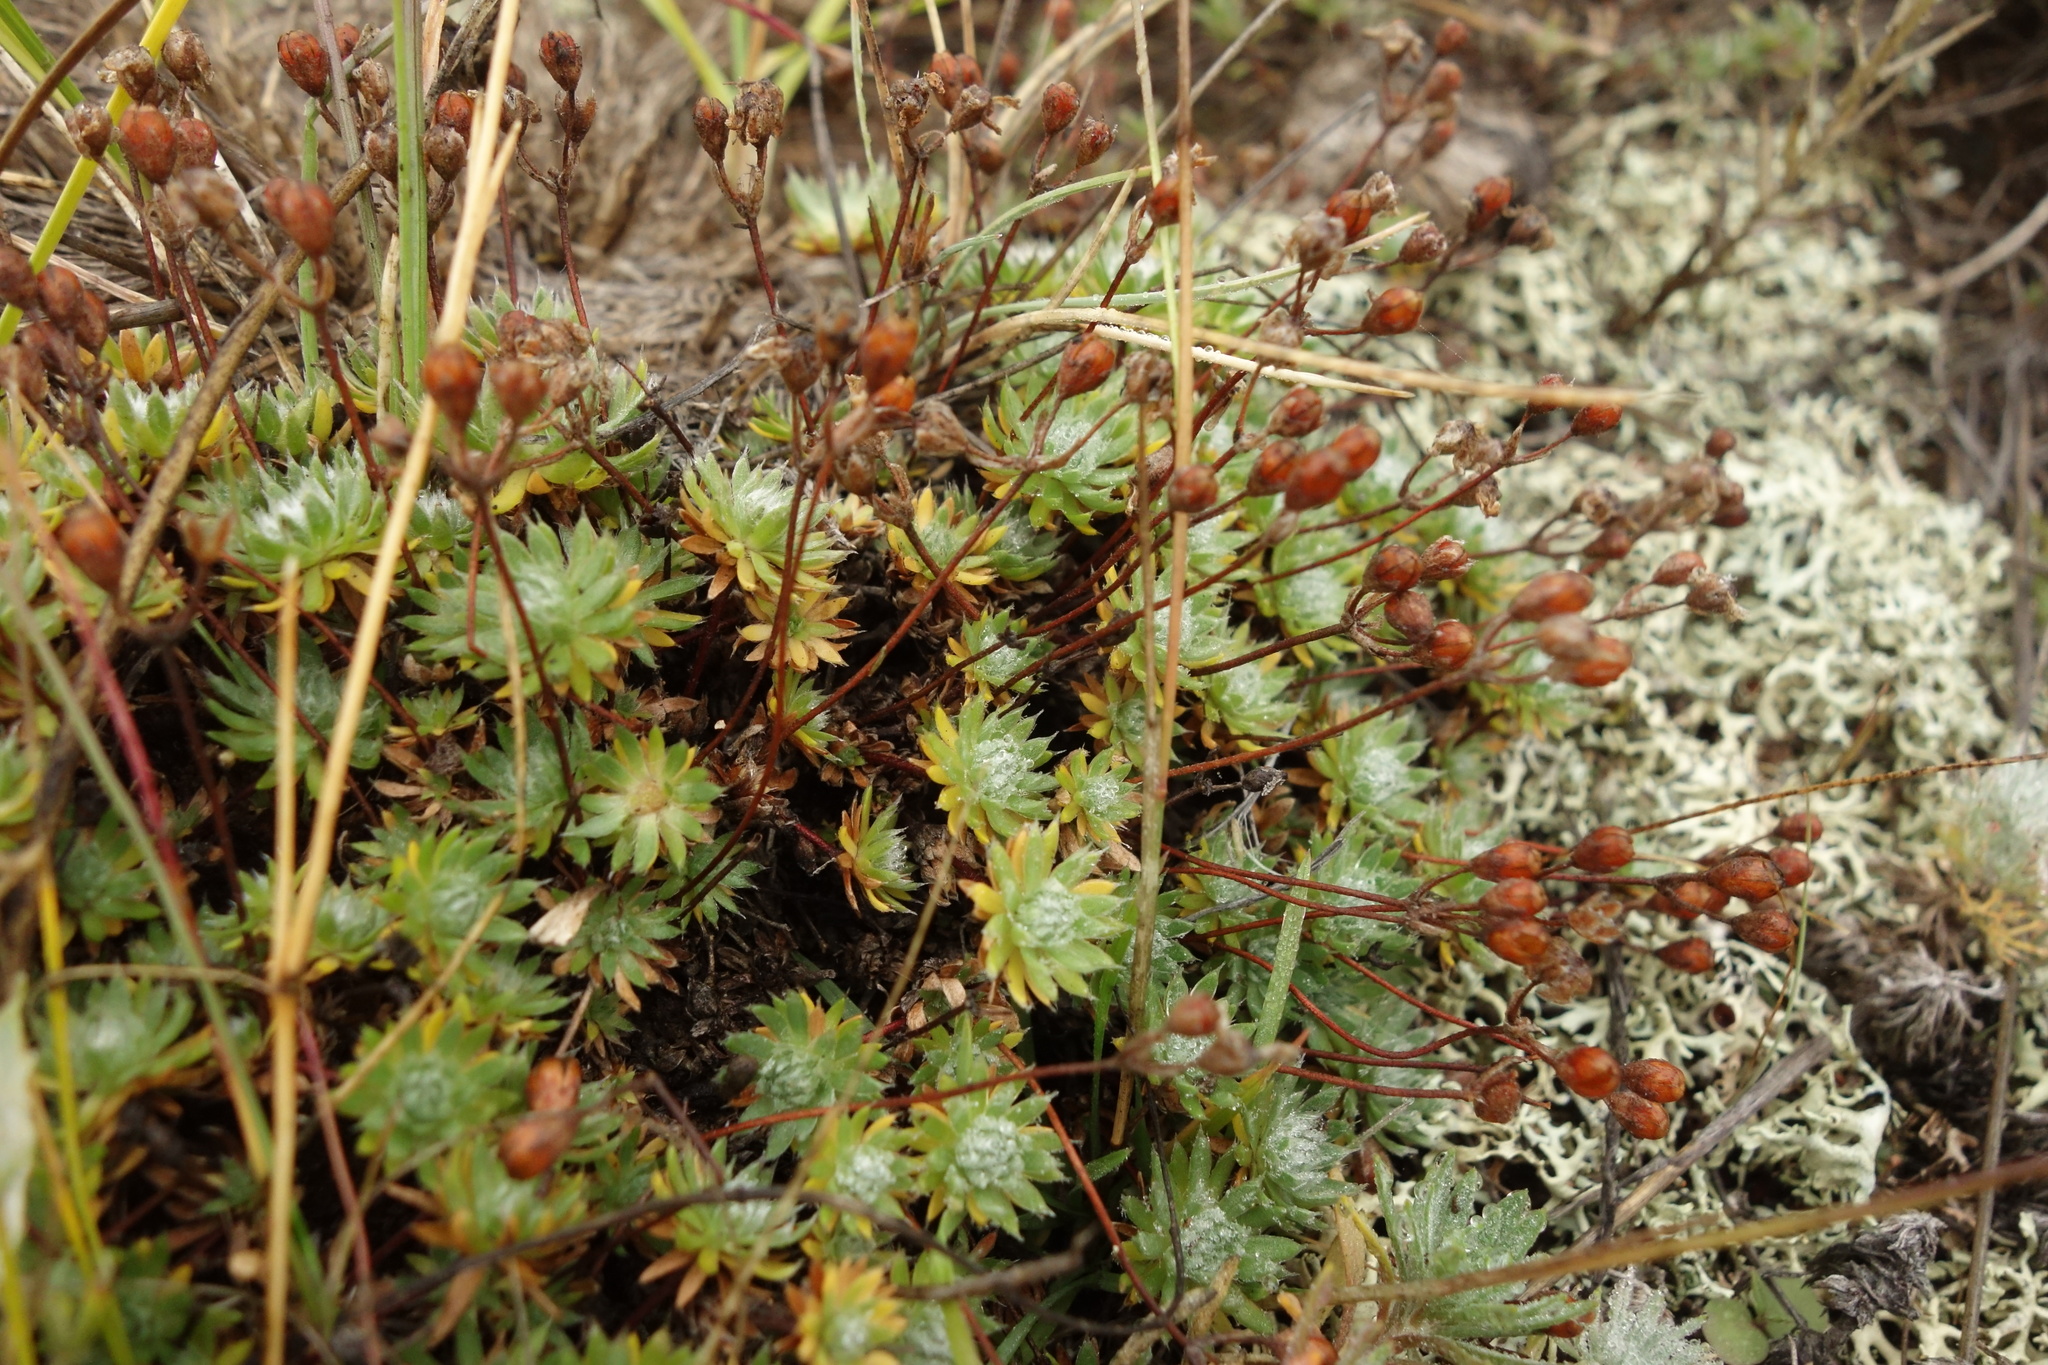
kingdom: Plantae
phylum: Tracheophyta
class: Magnoliopsida
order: Ericales
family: Primulaceae
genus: Androsace
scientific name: Androsace incana
